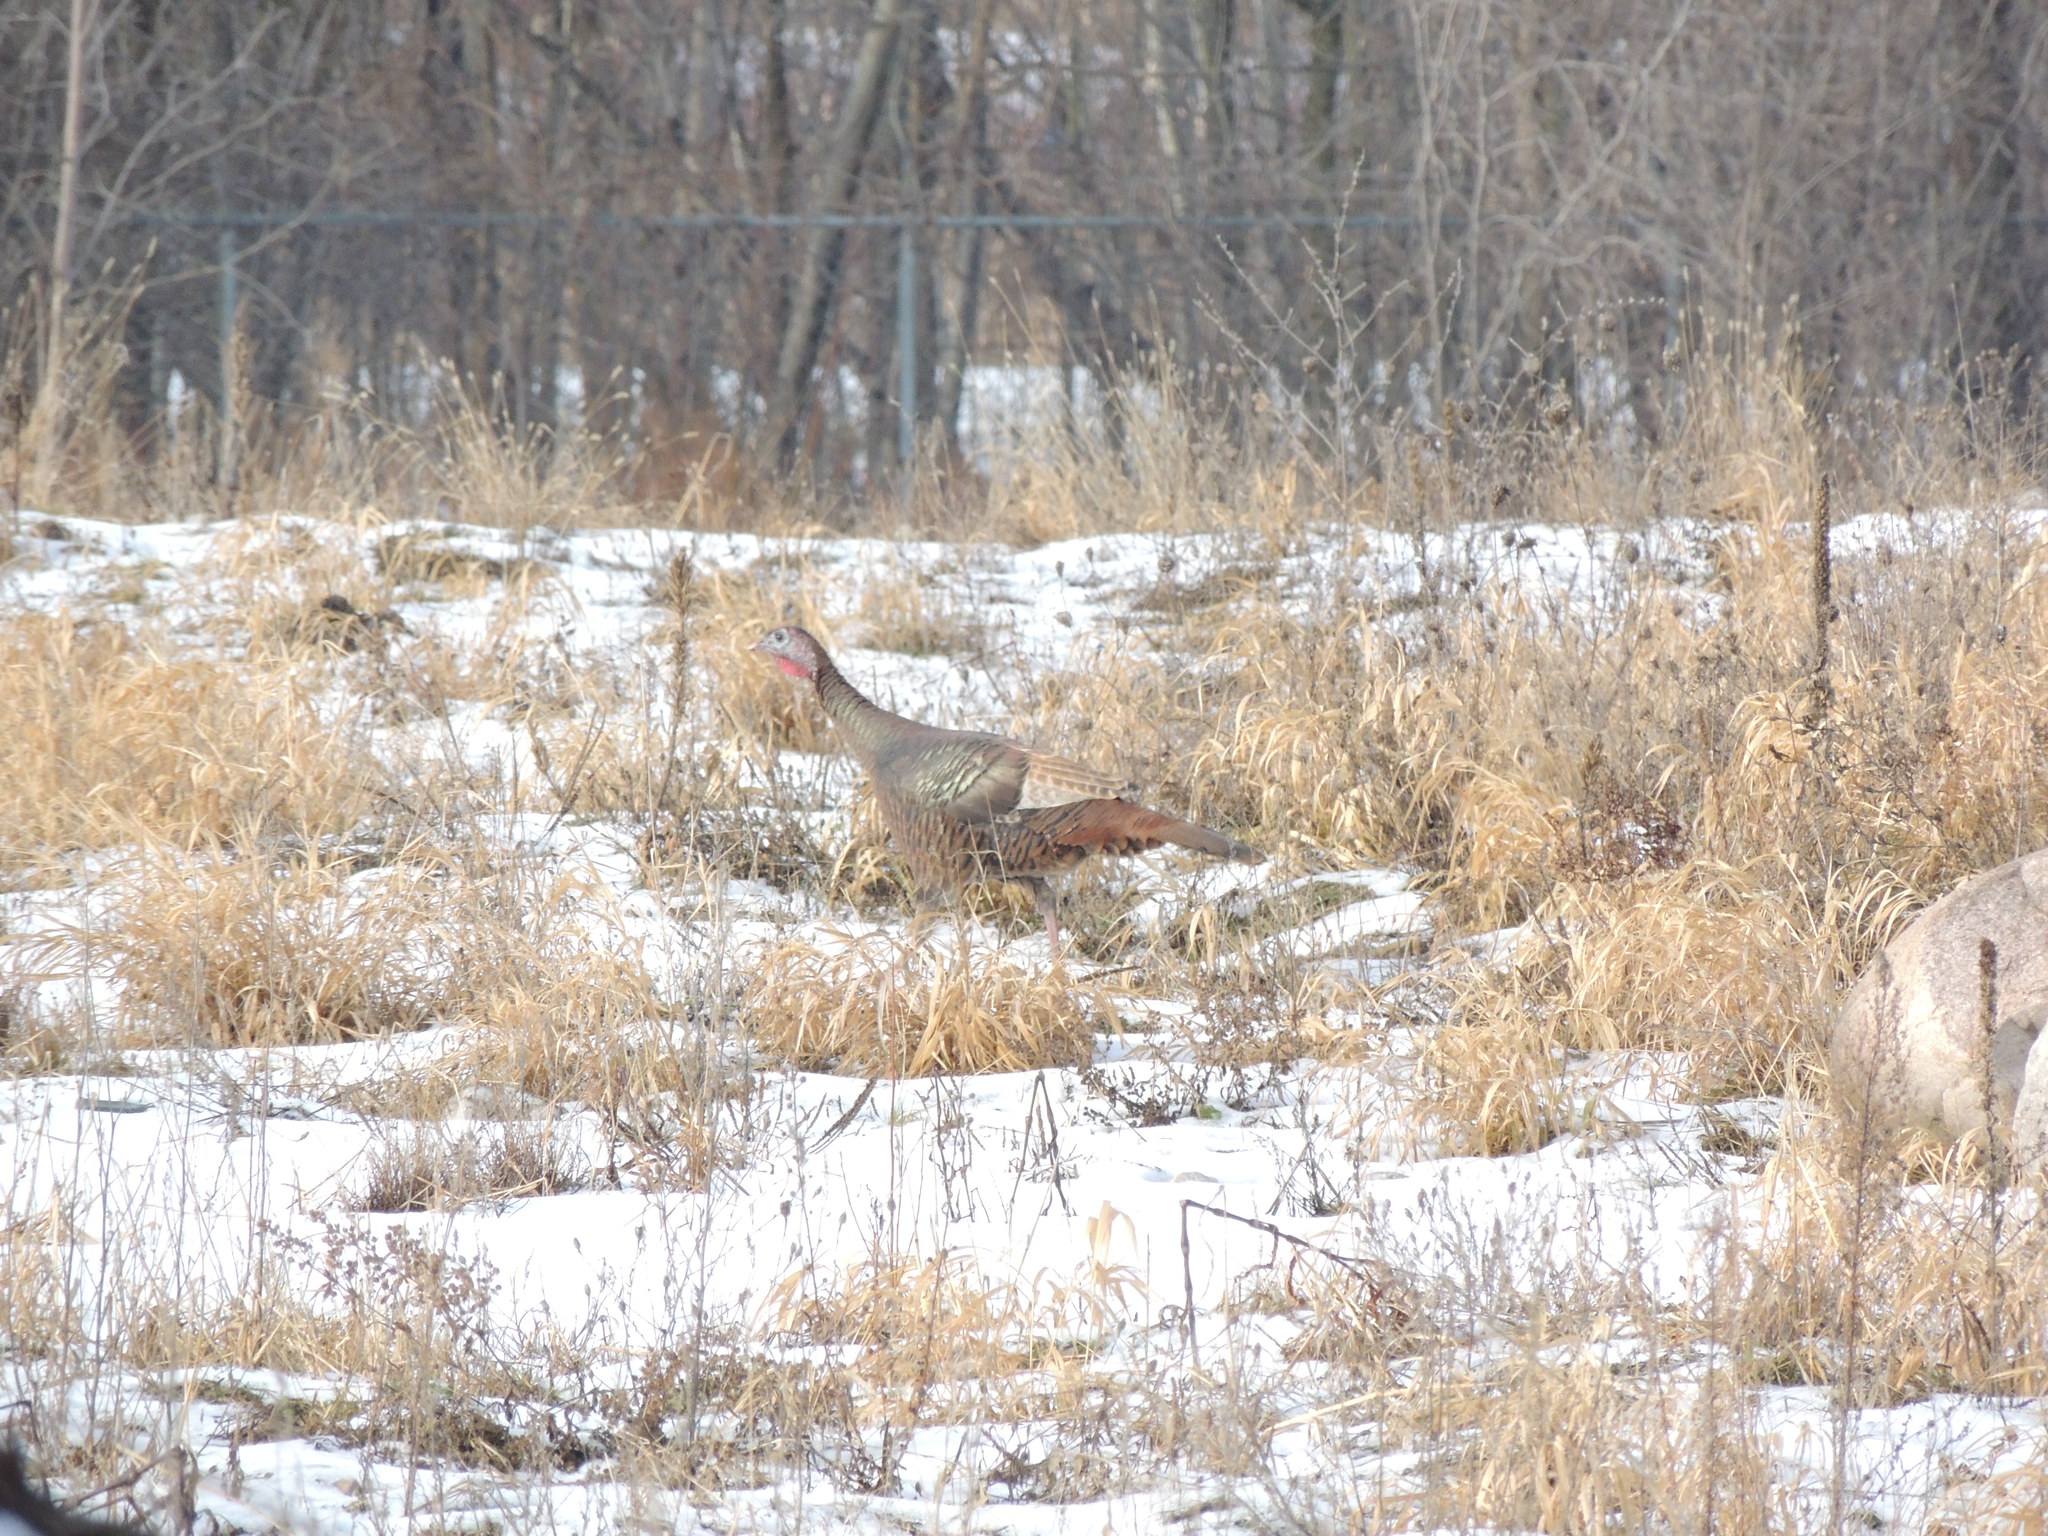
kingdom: Animalia
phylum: Chordata
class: Aves
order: Galliformes
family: Phasianidae
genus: Meleagris
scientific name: Meleagris gallopavo
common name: Wild turkey
